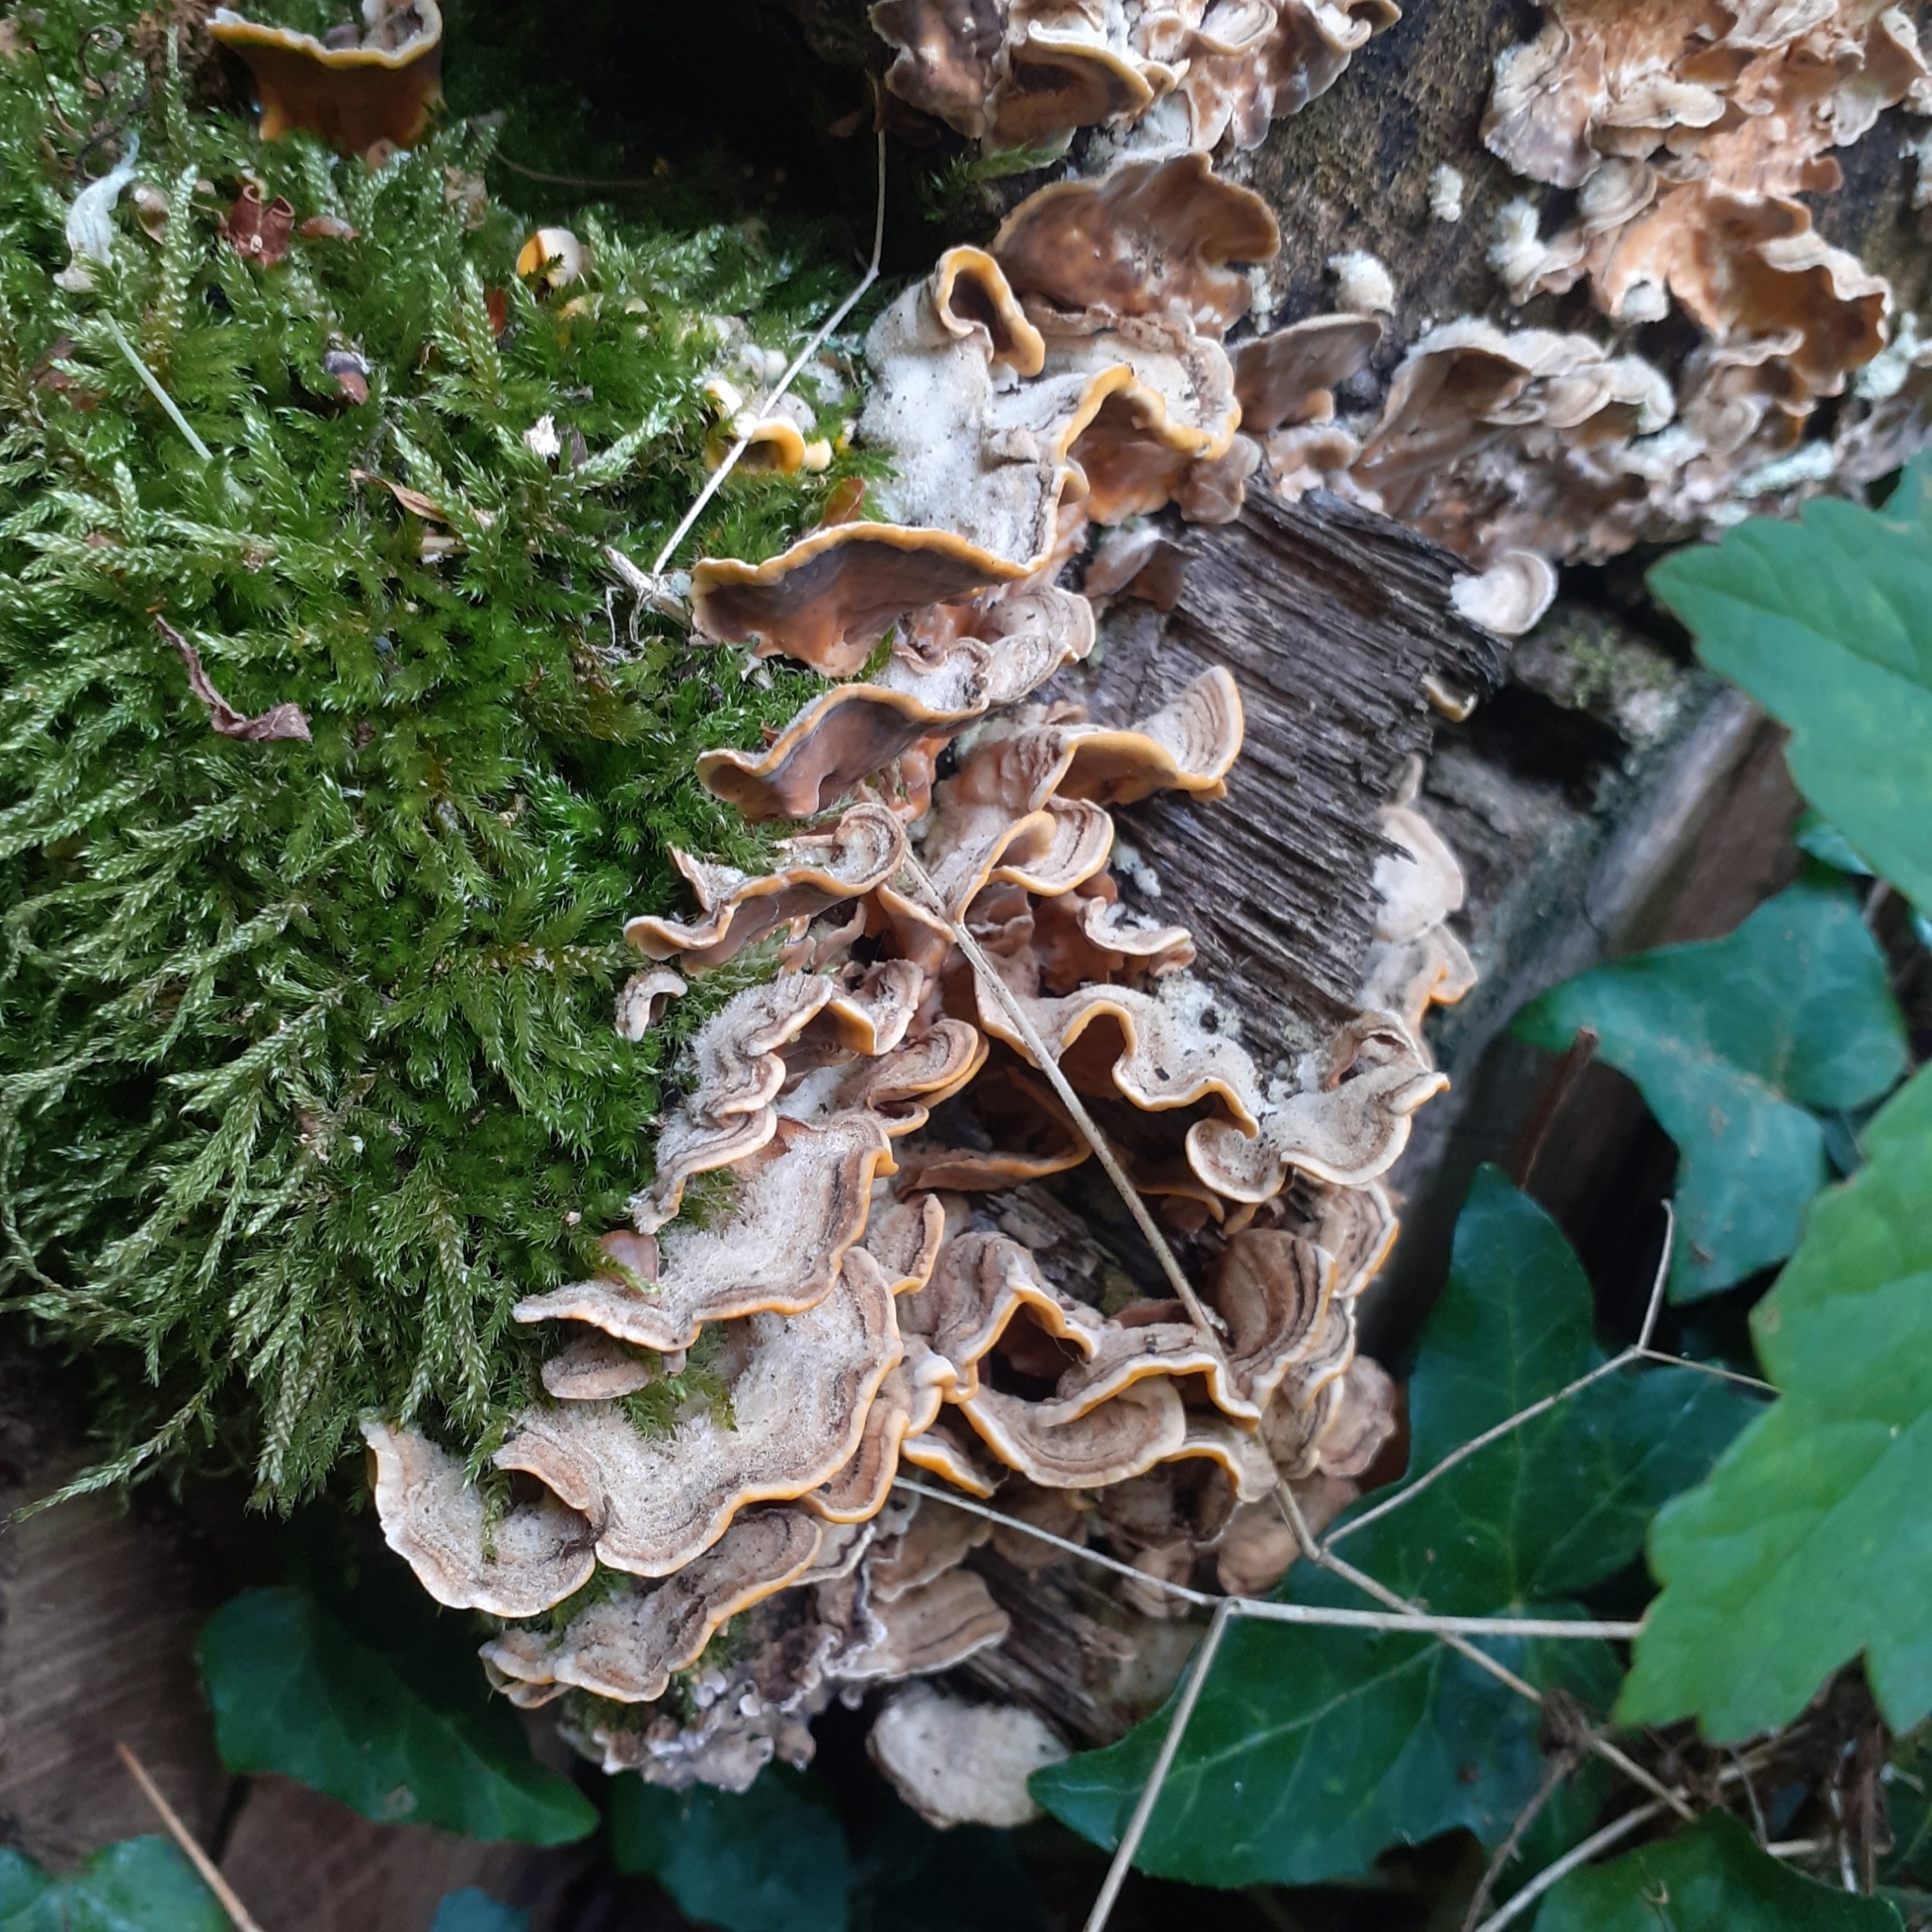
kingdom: Fungi
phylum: Basidiomycota
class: Agaricomycetes
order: Russulales
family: Stereaceae
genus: Stereum
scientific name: Stereum hirsutum
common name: Hairy curtain crust
